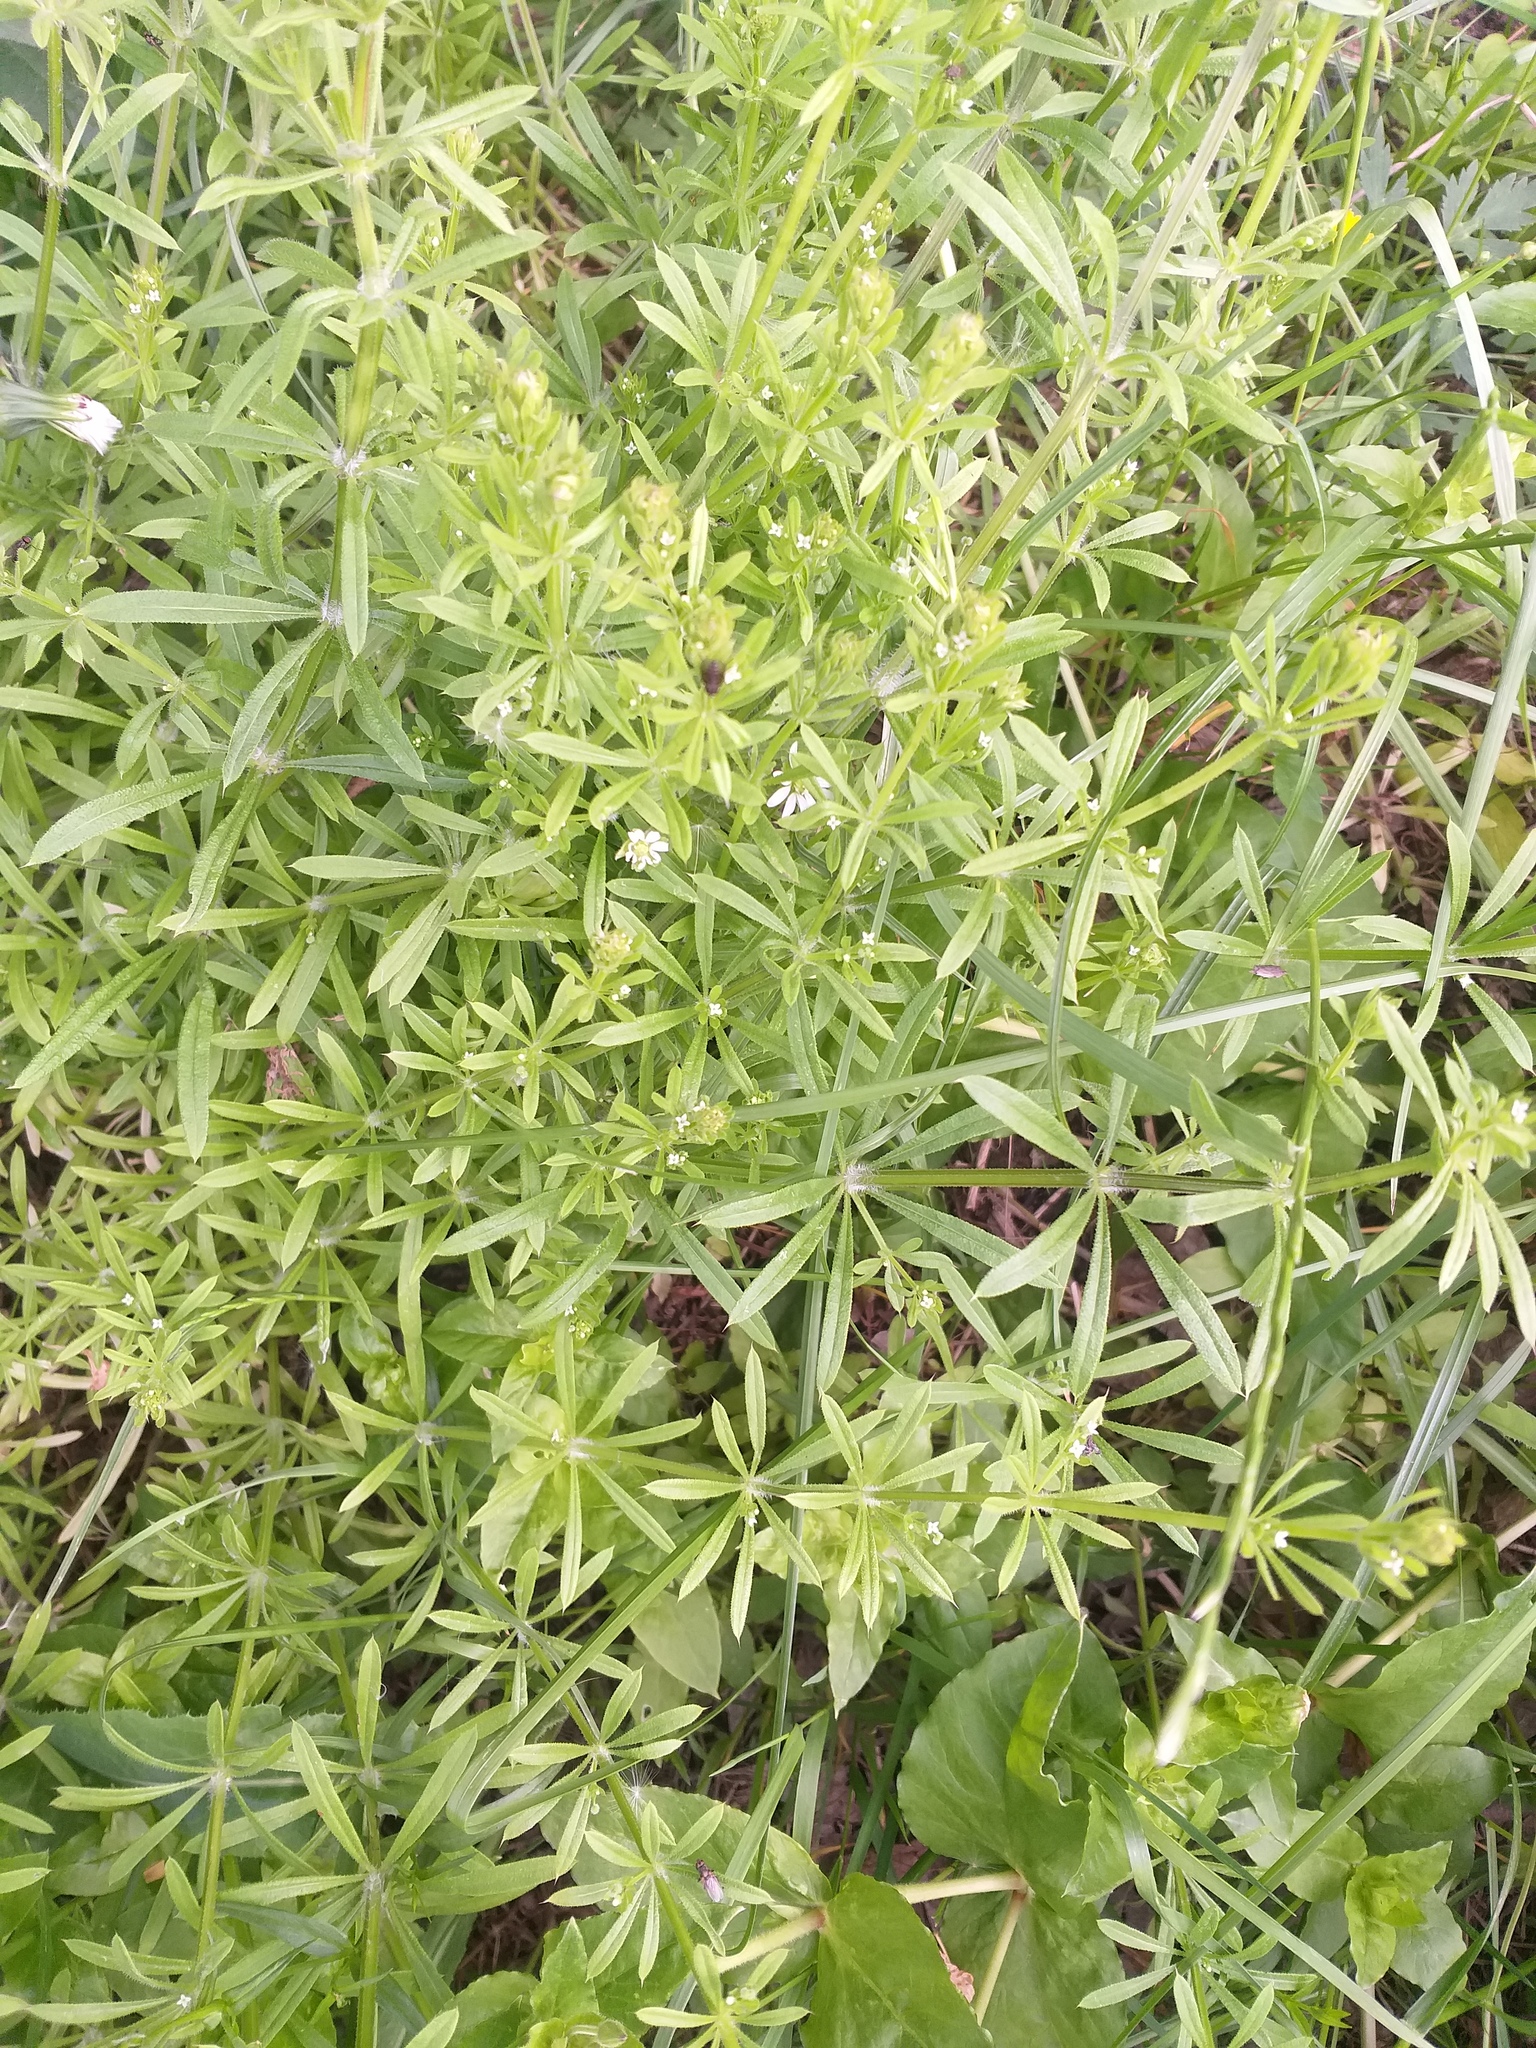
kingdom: Plantae
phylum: Tracheophyta
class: Magnoliopsida
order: Gentianales
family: Rubiaceae
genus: Galium
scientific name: Galium aparine
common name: Cleavers
